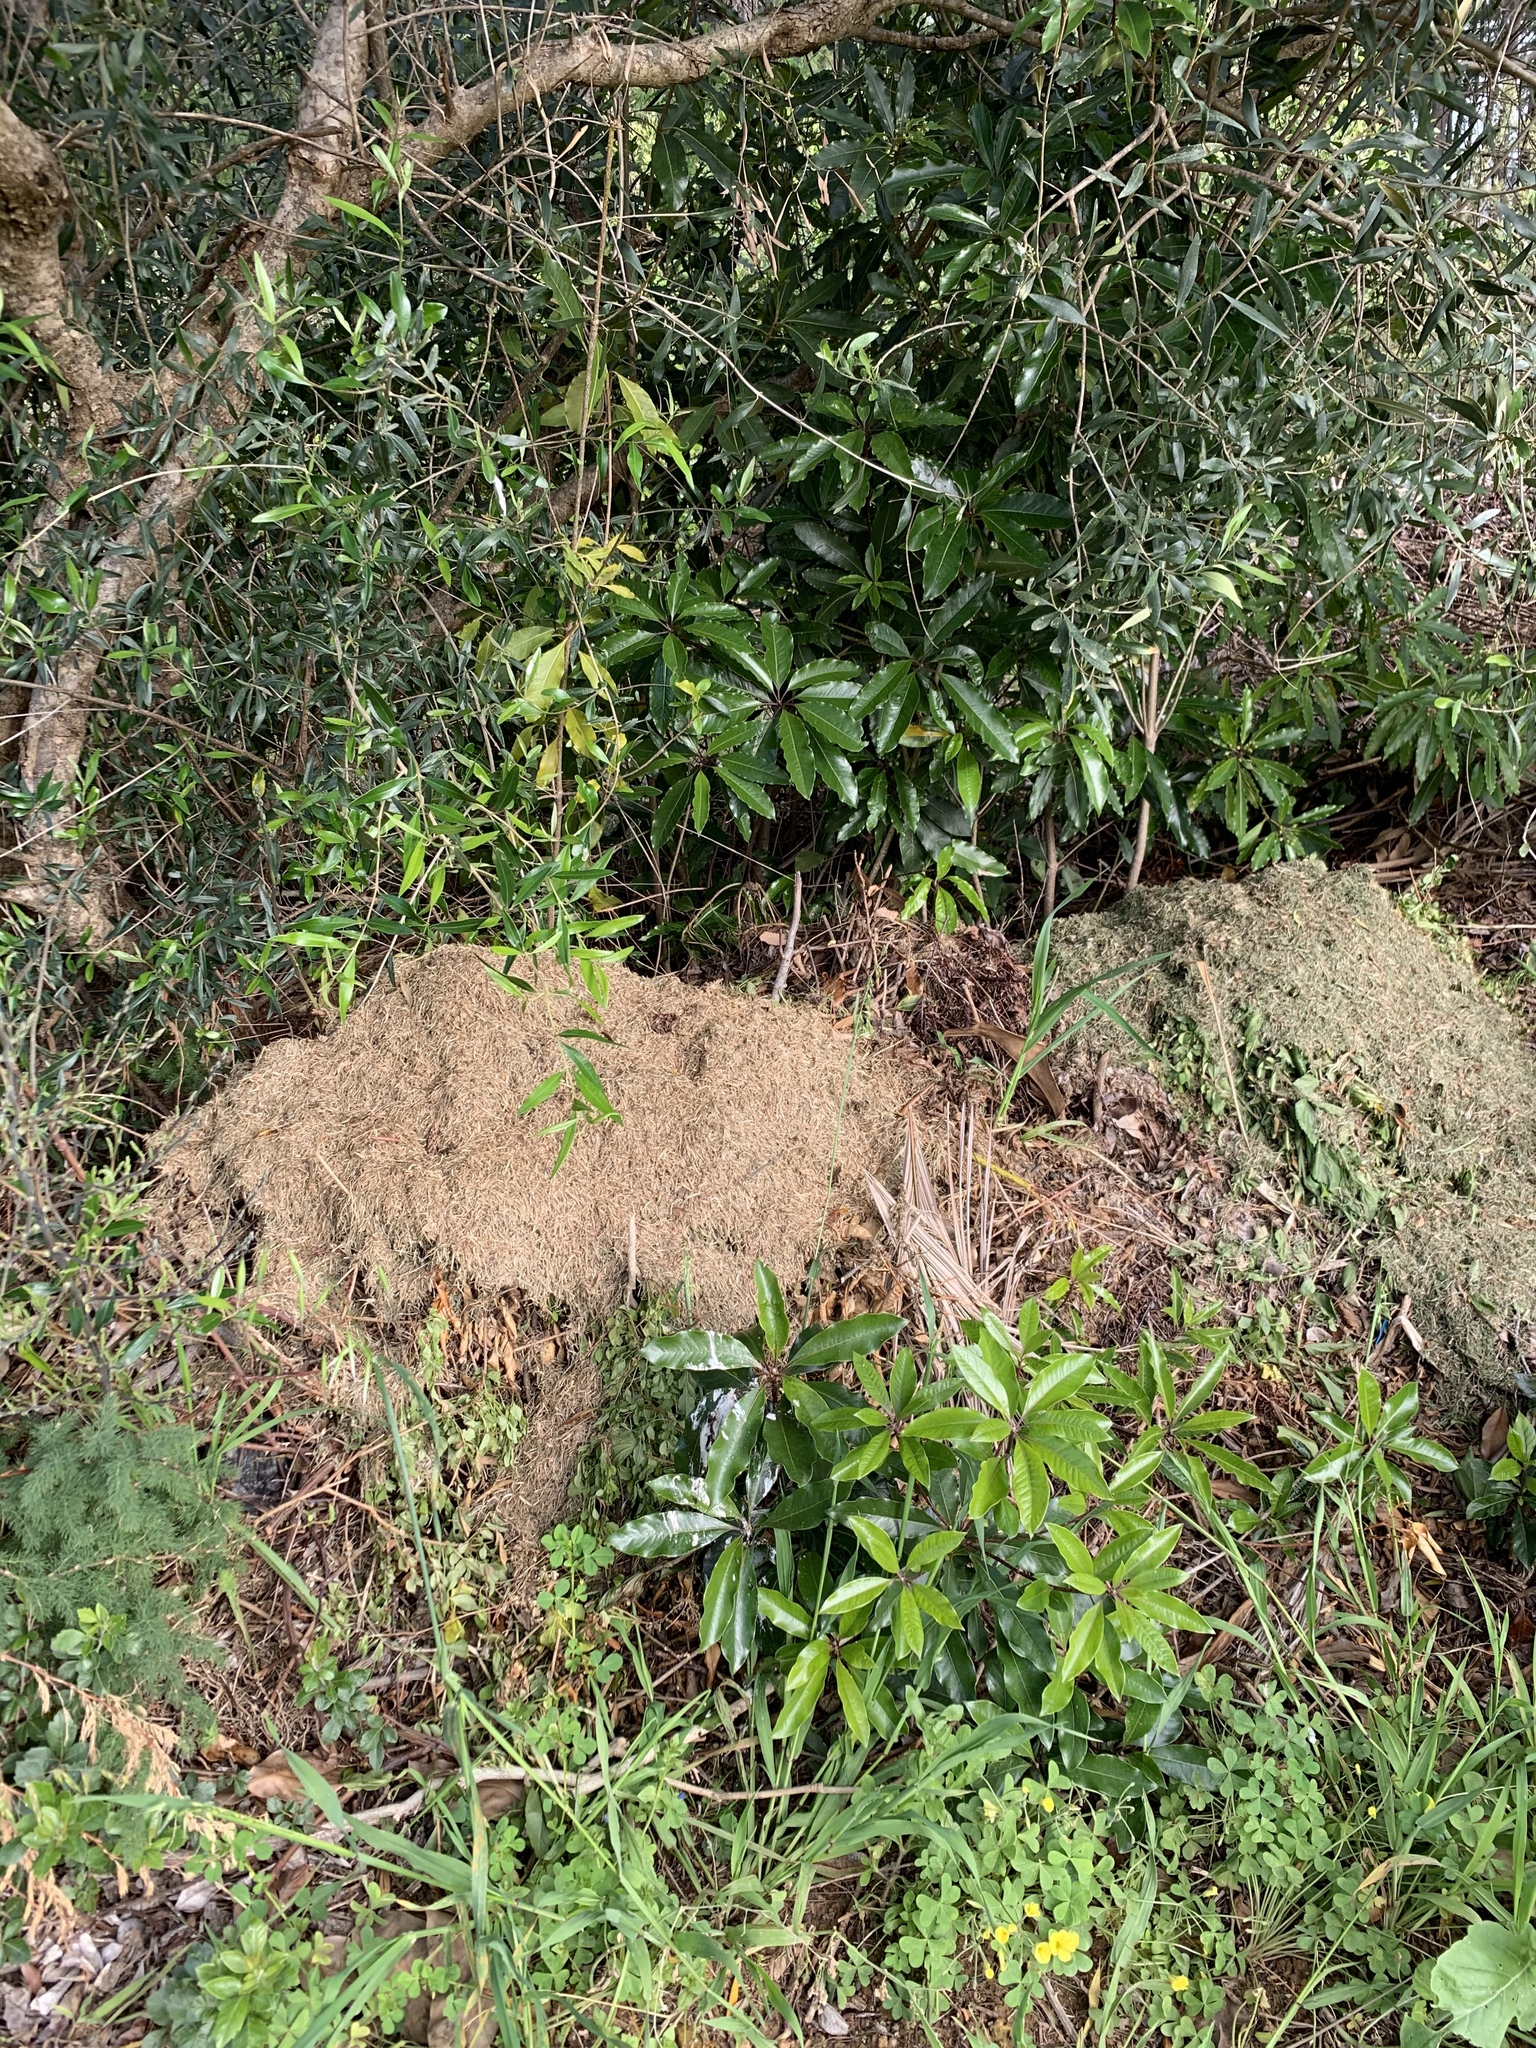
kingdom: Plantae
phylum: Tracheophyta
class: Magnoliopsida
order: Apiales
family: Pittosporaceae
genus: Pittosporum
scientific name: Pittosporum undulatum
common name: Australian cheesewood
